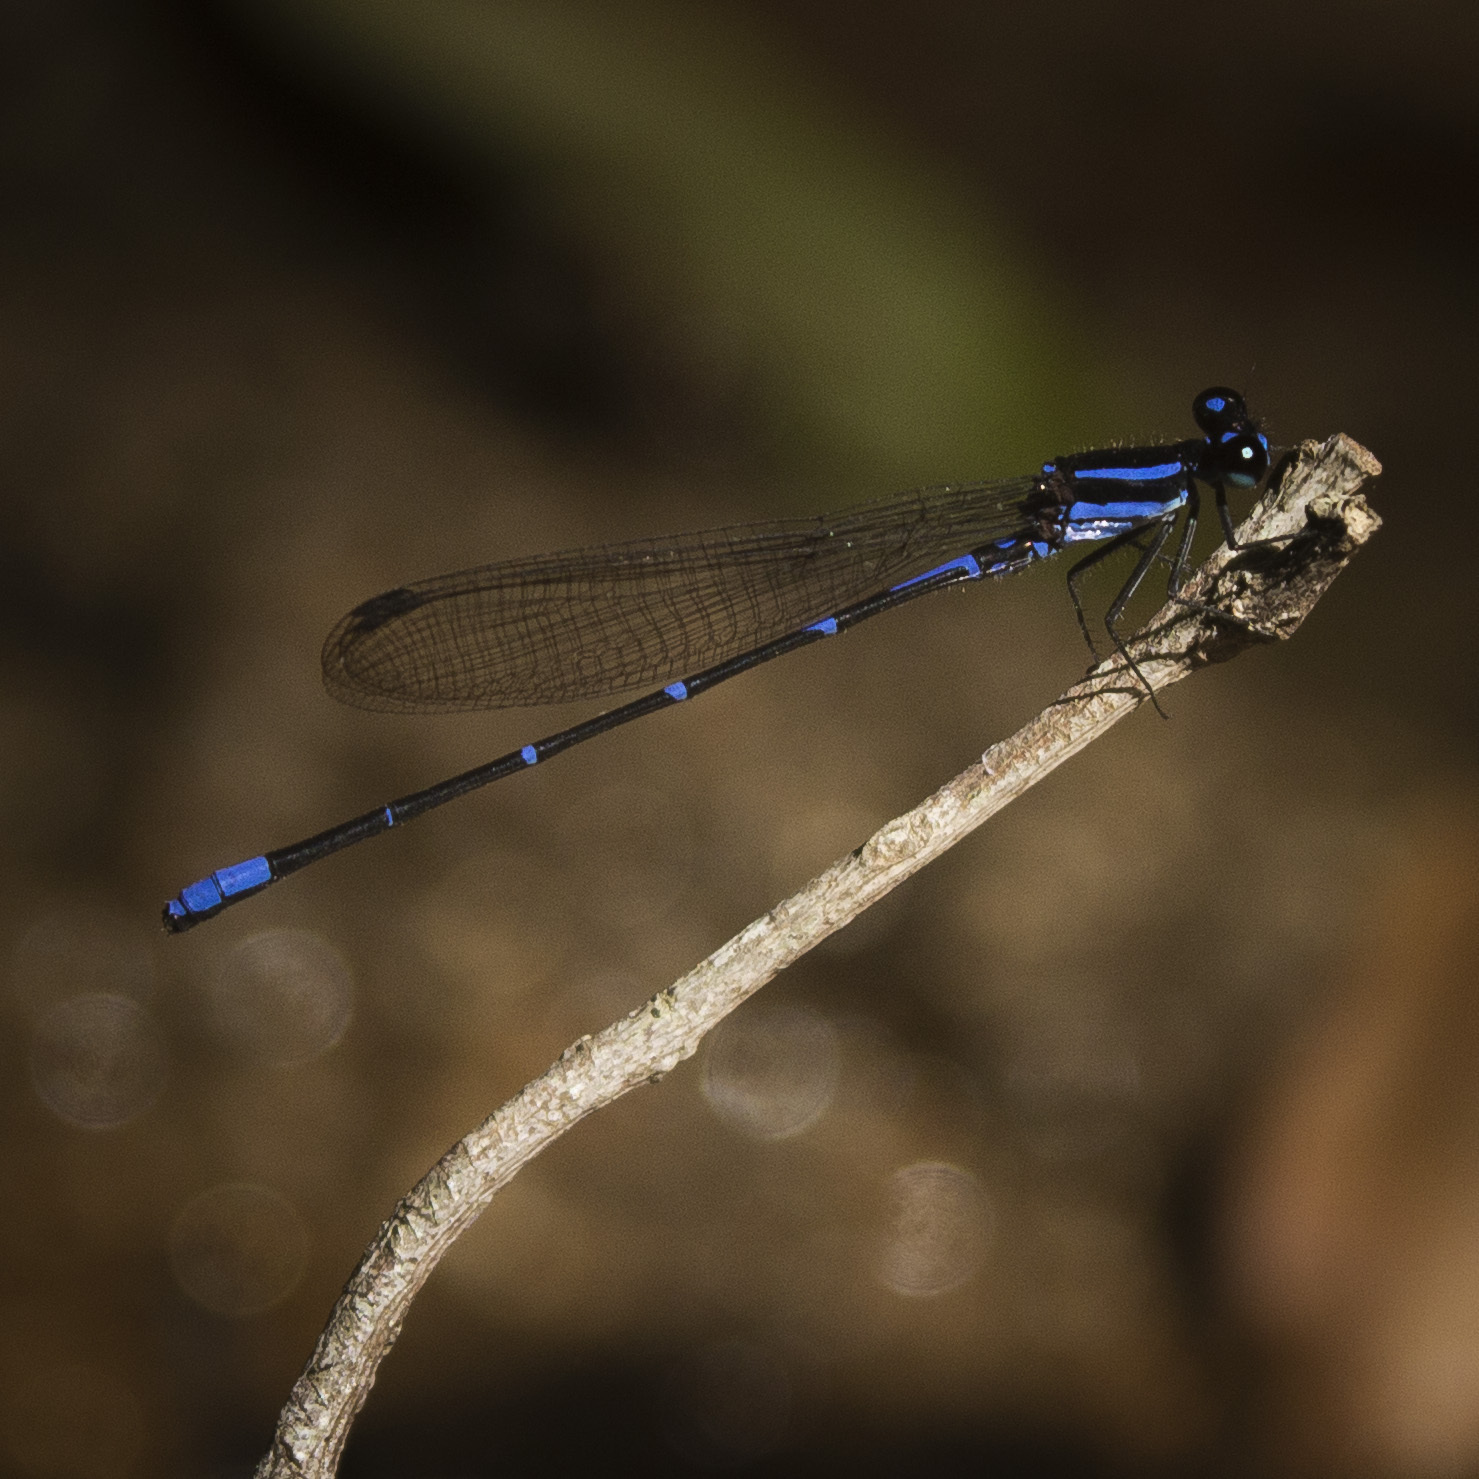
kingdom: Animalia
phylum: Arthropoda
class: Insecta
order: Odonata
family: Coenagrionidae
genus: Argia
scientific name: Argia oculata
